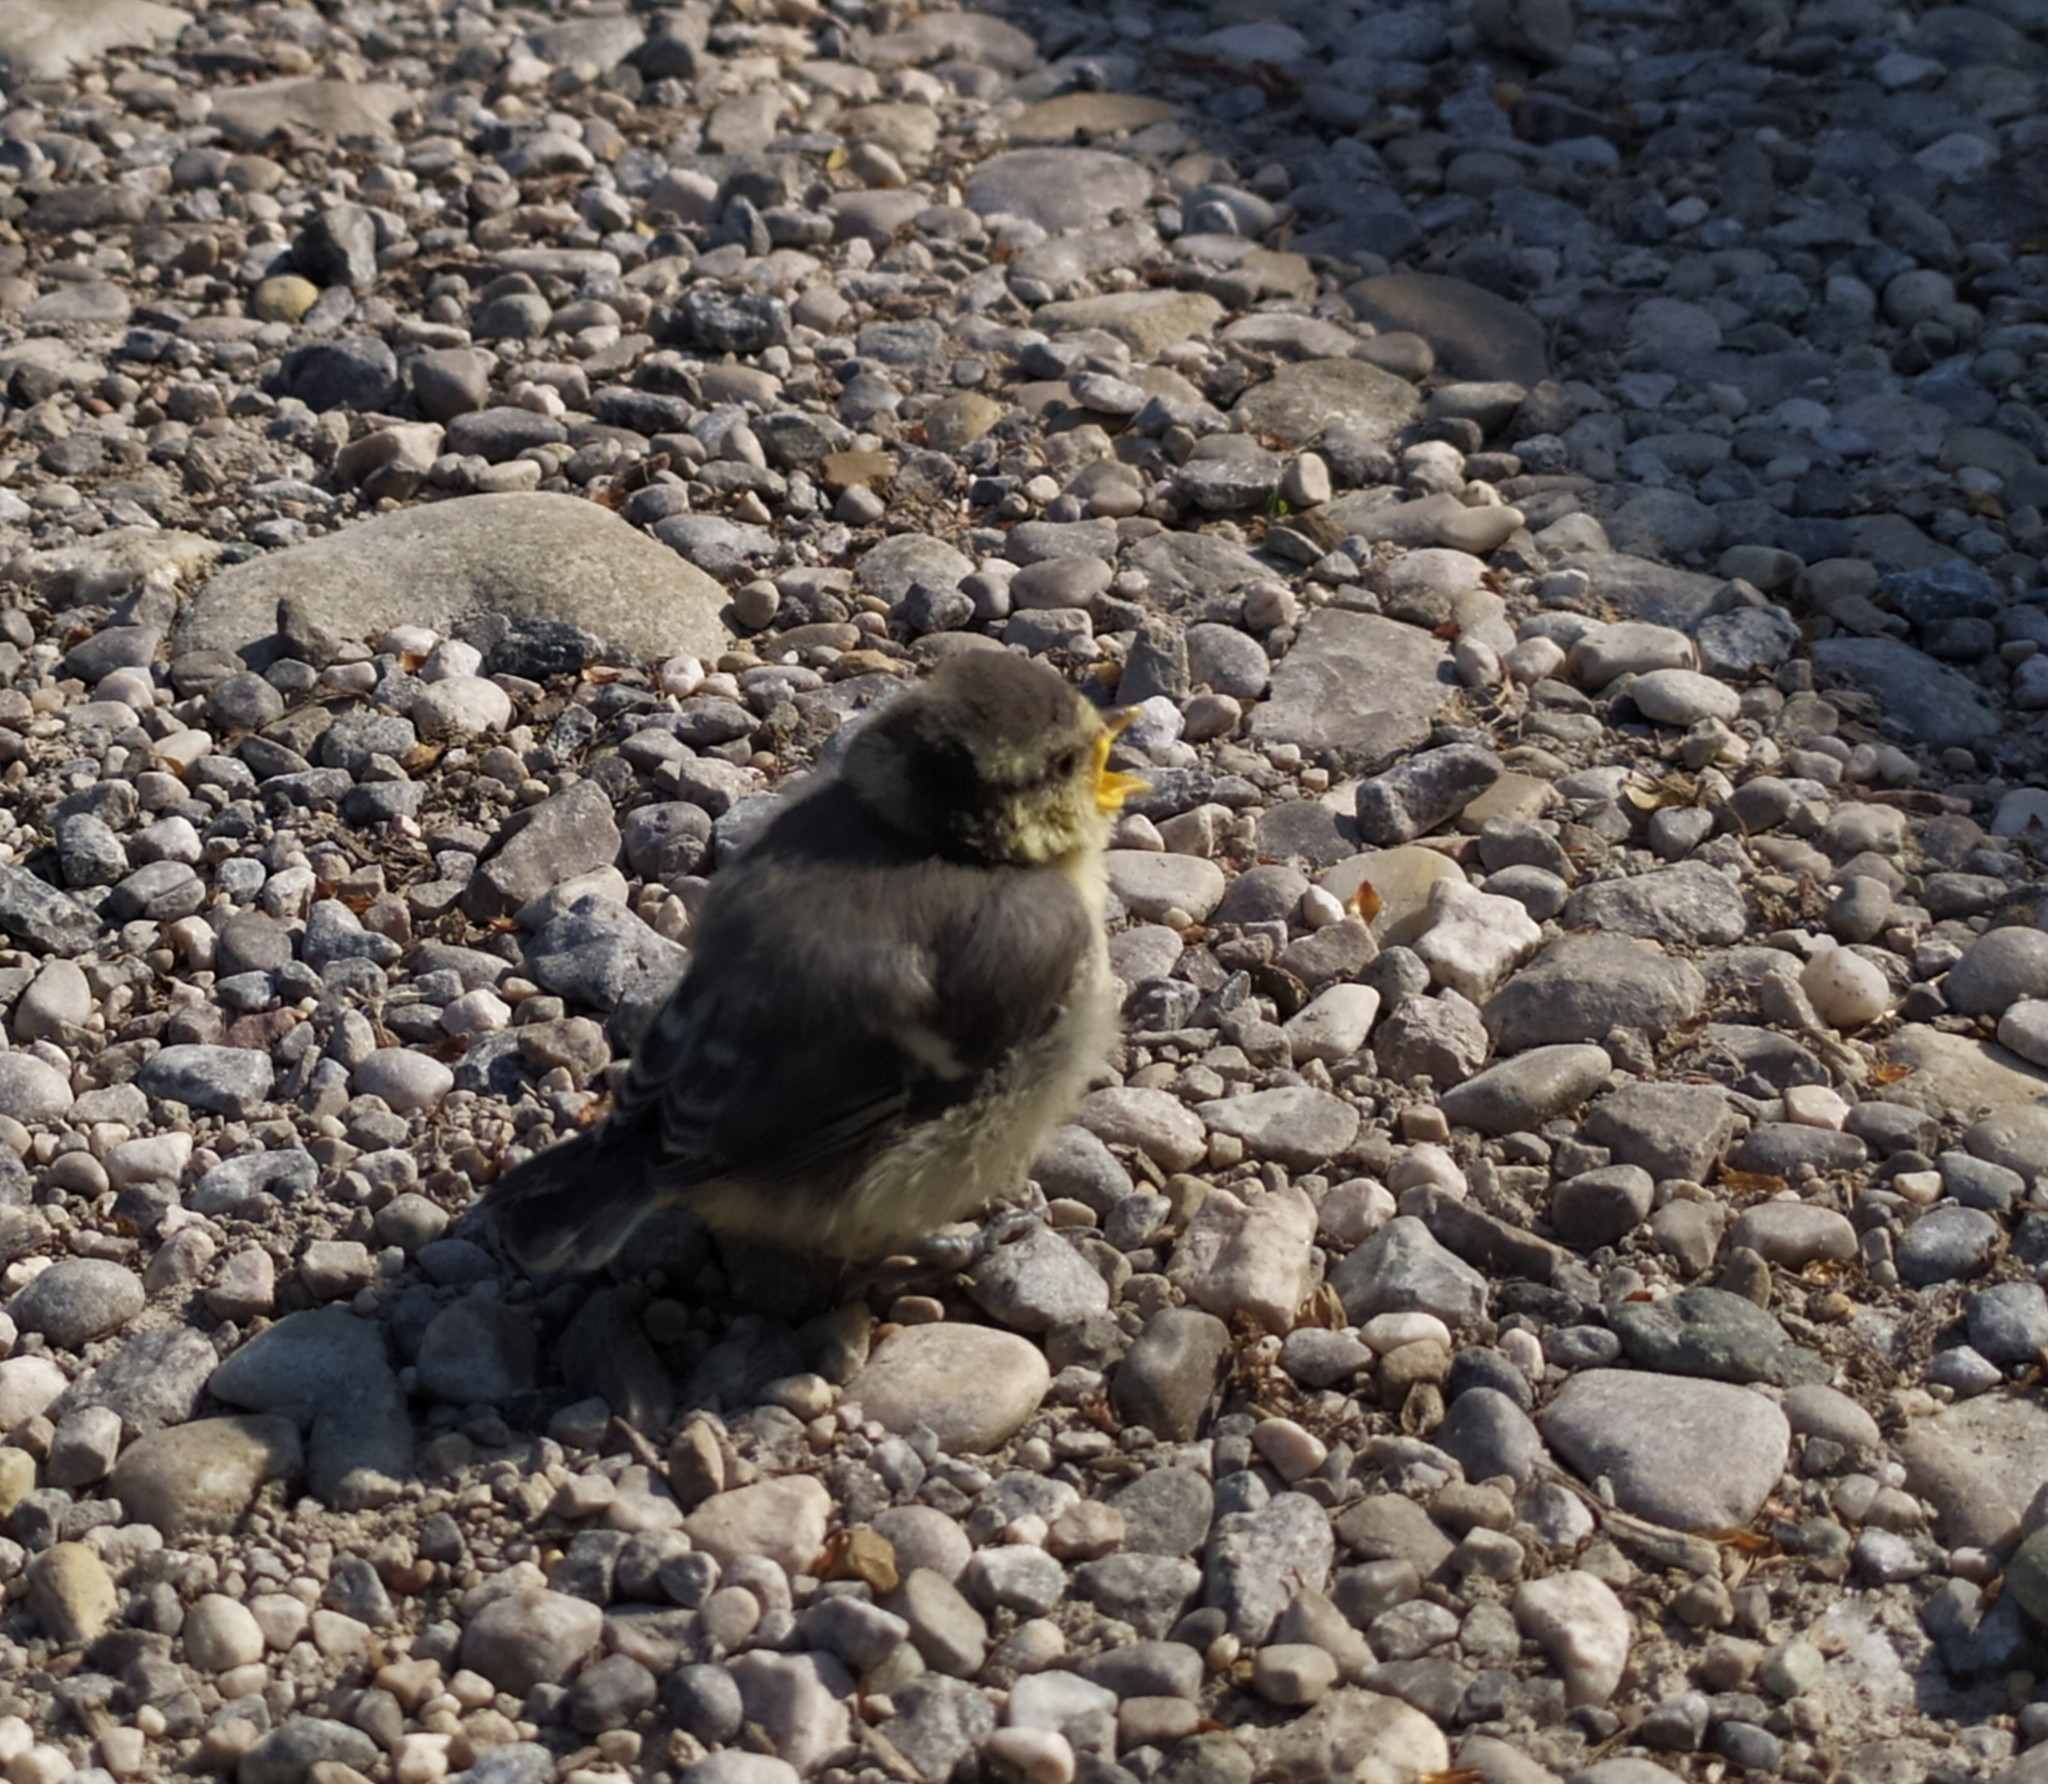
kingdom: Animalia
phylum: Chordata
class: Aves
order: Passeriformes
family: Paridae
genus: Cyanistes
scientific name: Cyanistes caeruleus
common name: Eurasian blue tit
